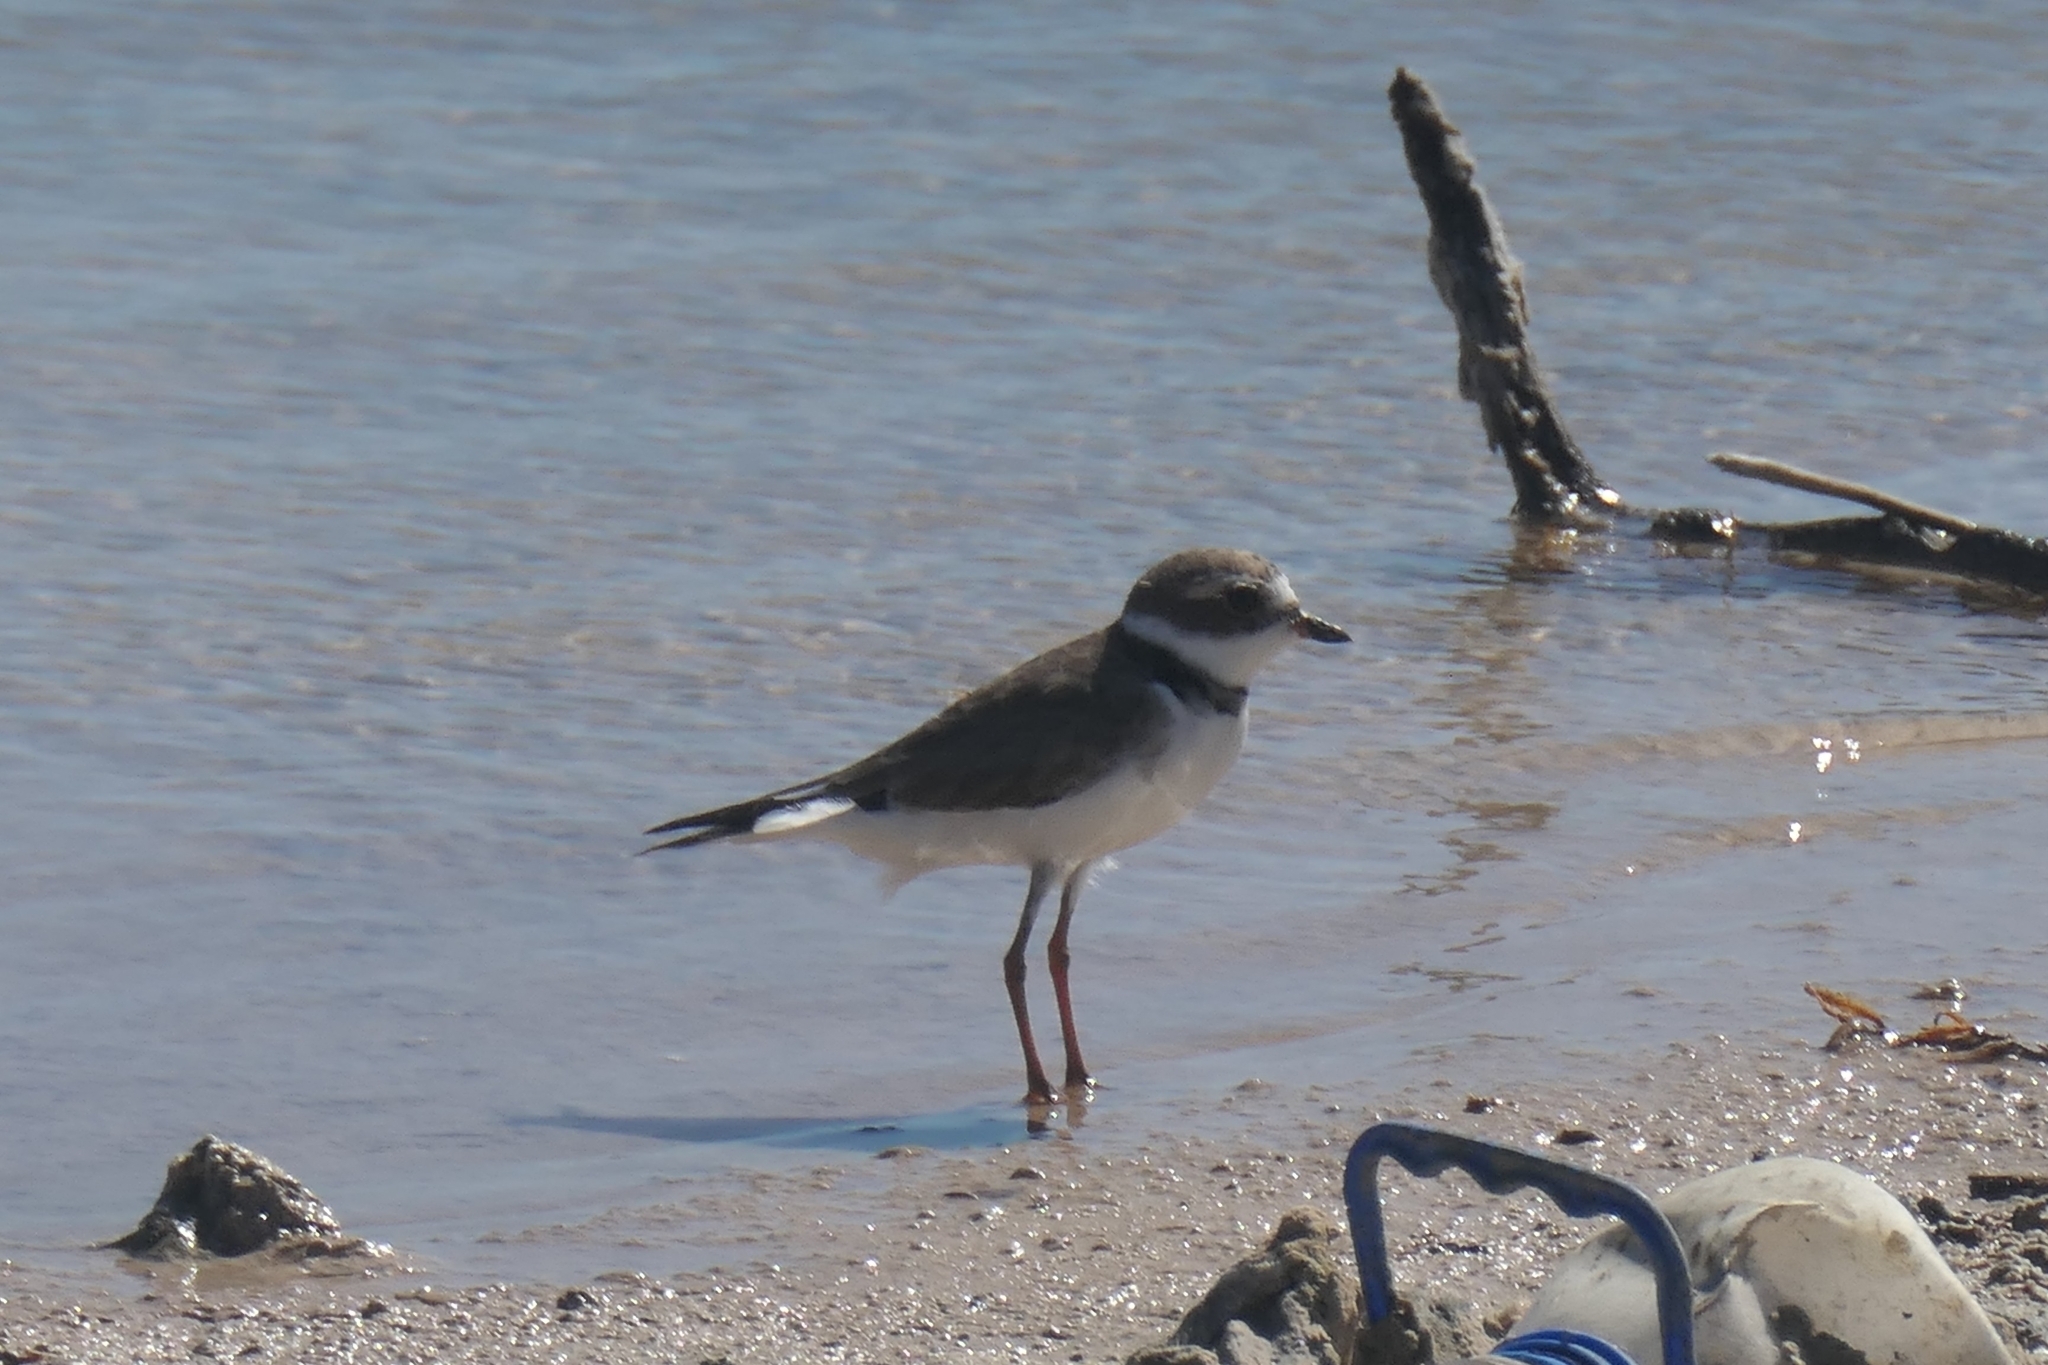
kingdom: Animalia
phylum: Chordata
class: Aves
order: Charadriiformes
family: Charadriidae
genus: Charadrius
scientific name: Charadrius semipalmatus
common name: Semipalmated plover
